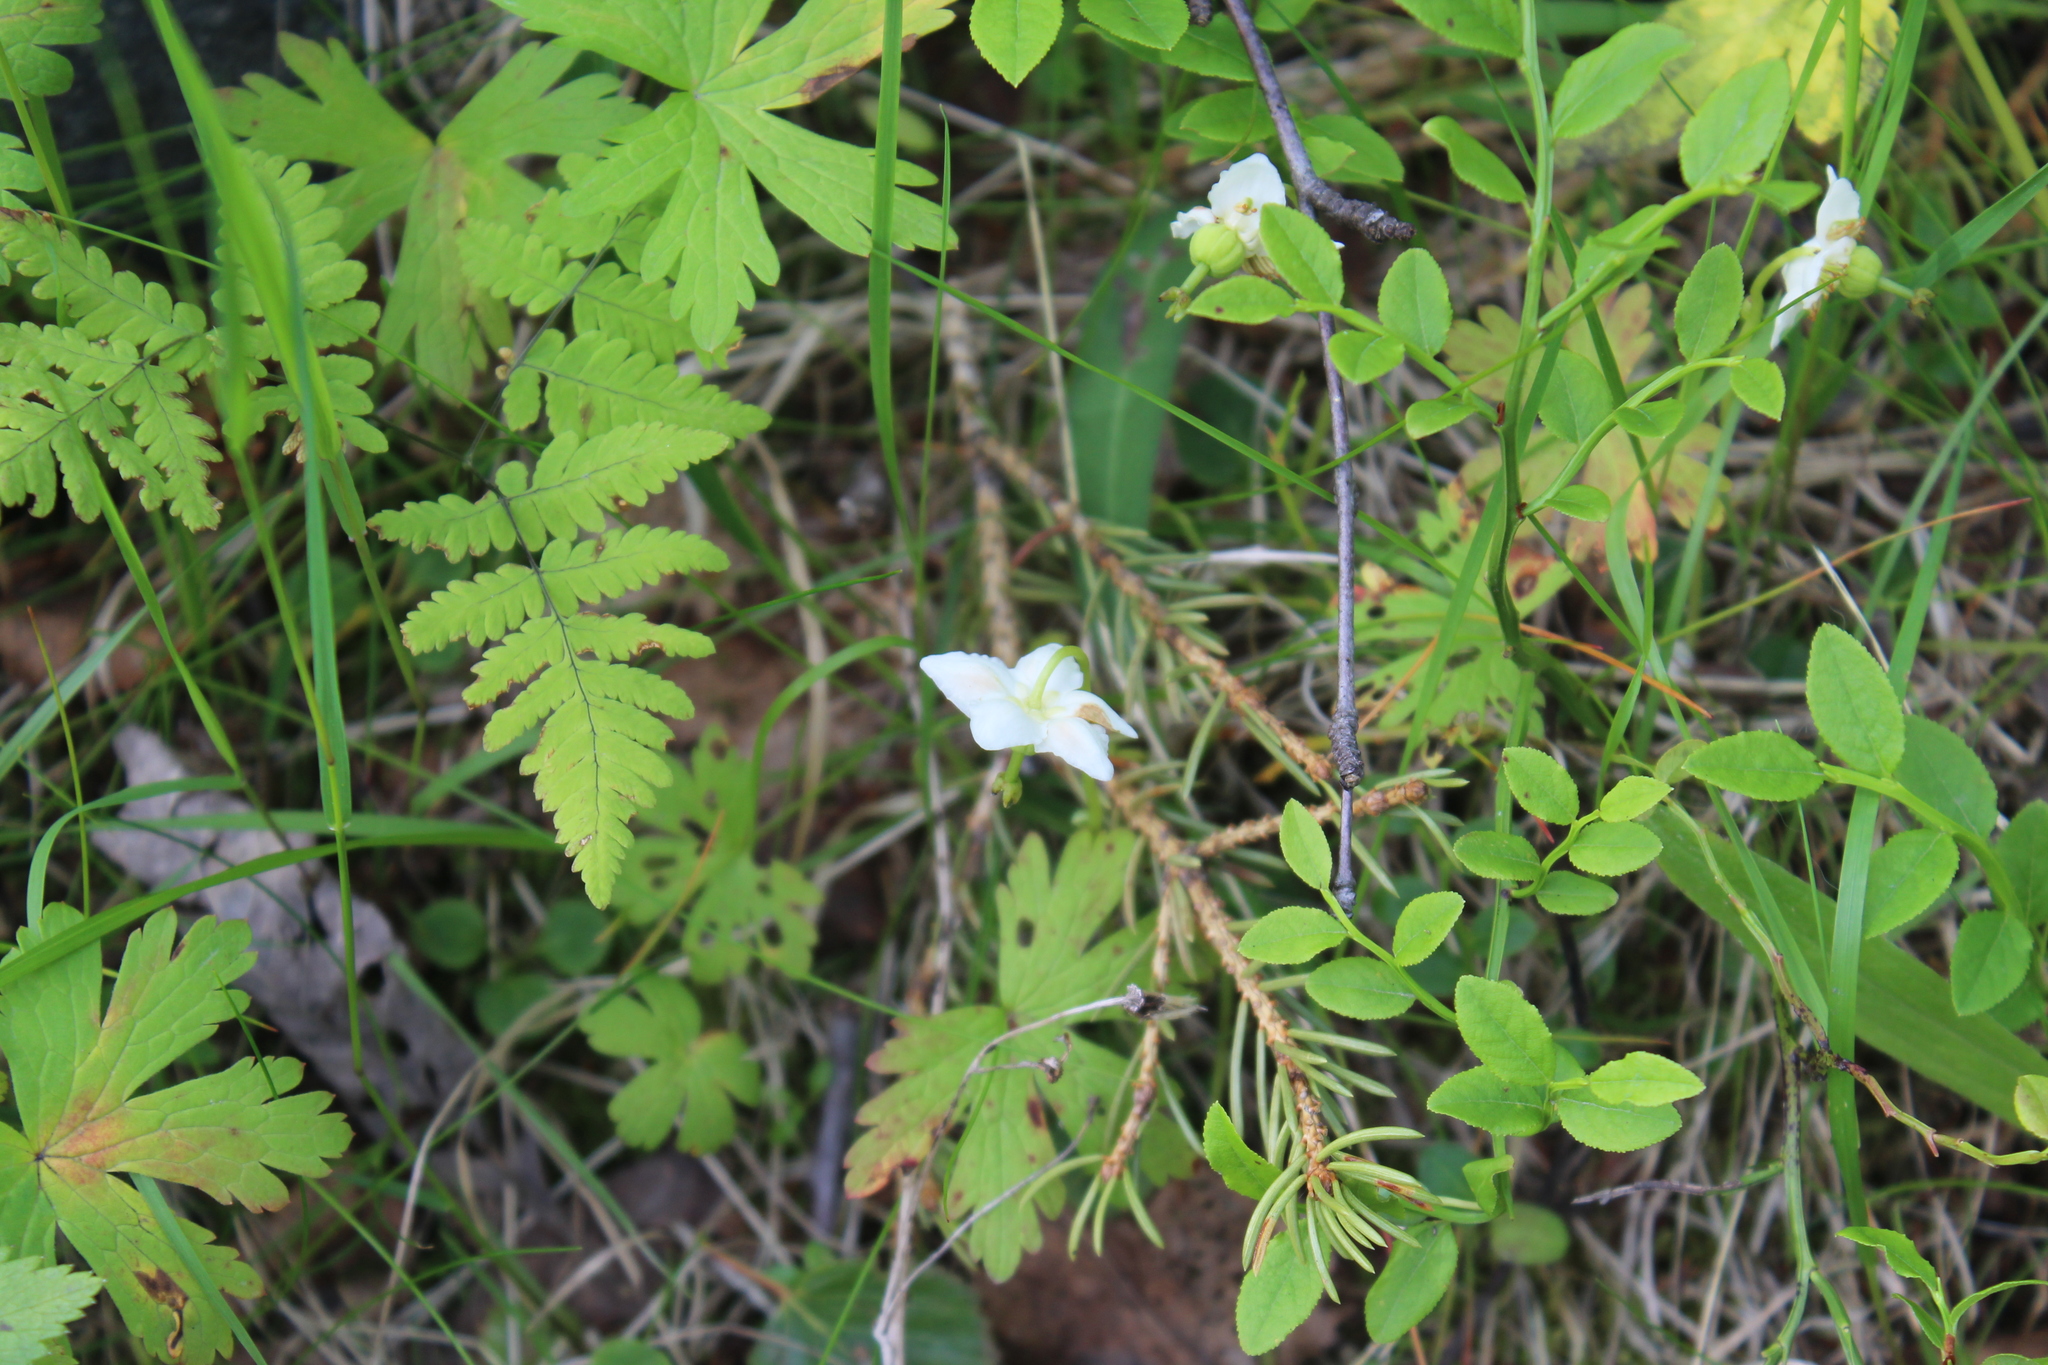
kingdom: Plantae
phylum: Tracheophyta
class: Magnoliopsida
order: Ericales
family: Ericaceae
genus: Moneses
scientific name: Moneses uniflora
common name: One-flowered wintergreen
